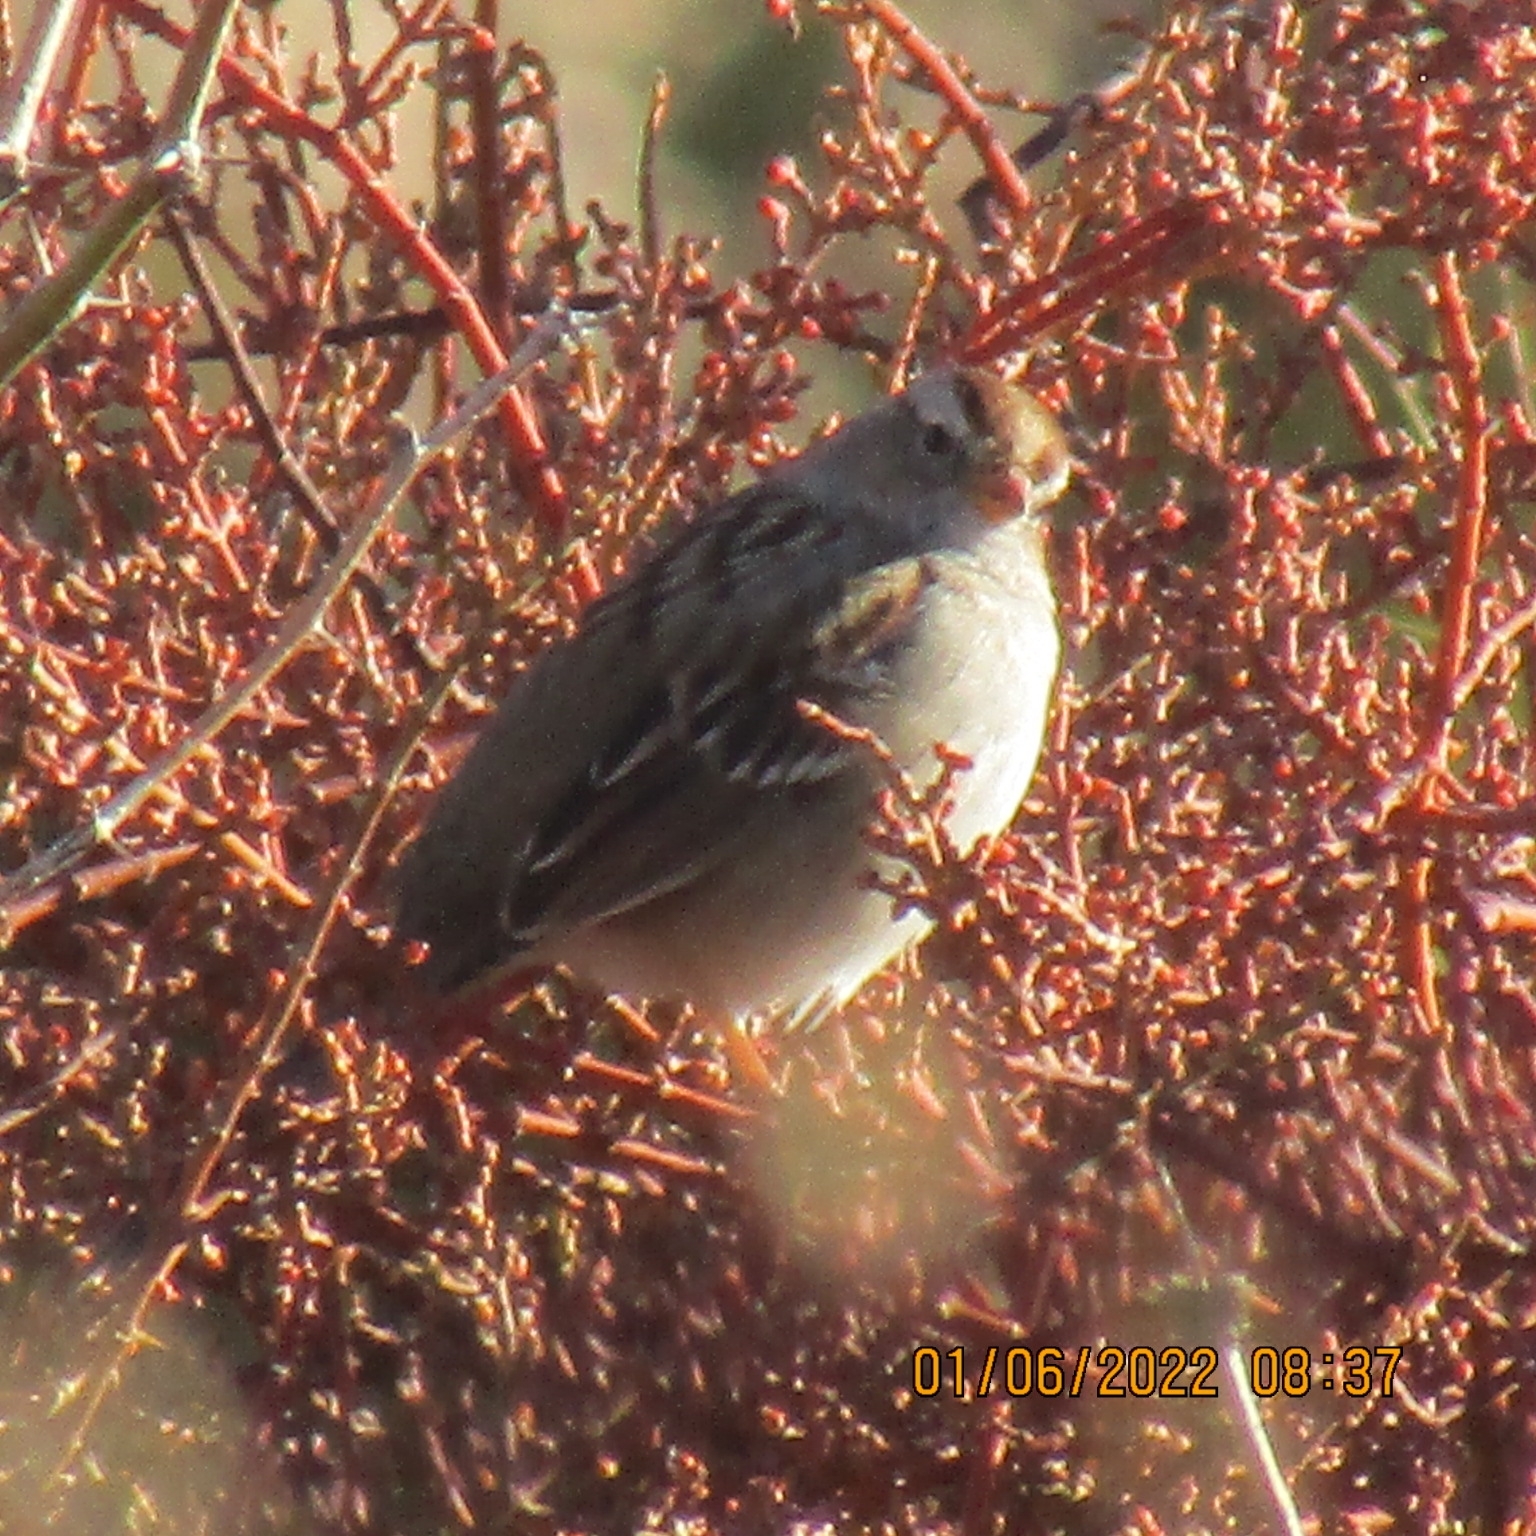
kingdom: Animalia
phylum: Chordata
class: Aves
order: Passeriformes
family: Passerellidae
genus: Zonotrichia
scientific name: Zonotrichia leucophrys
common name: White-crowned sparrow
